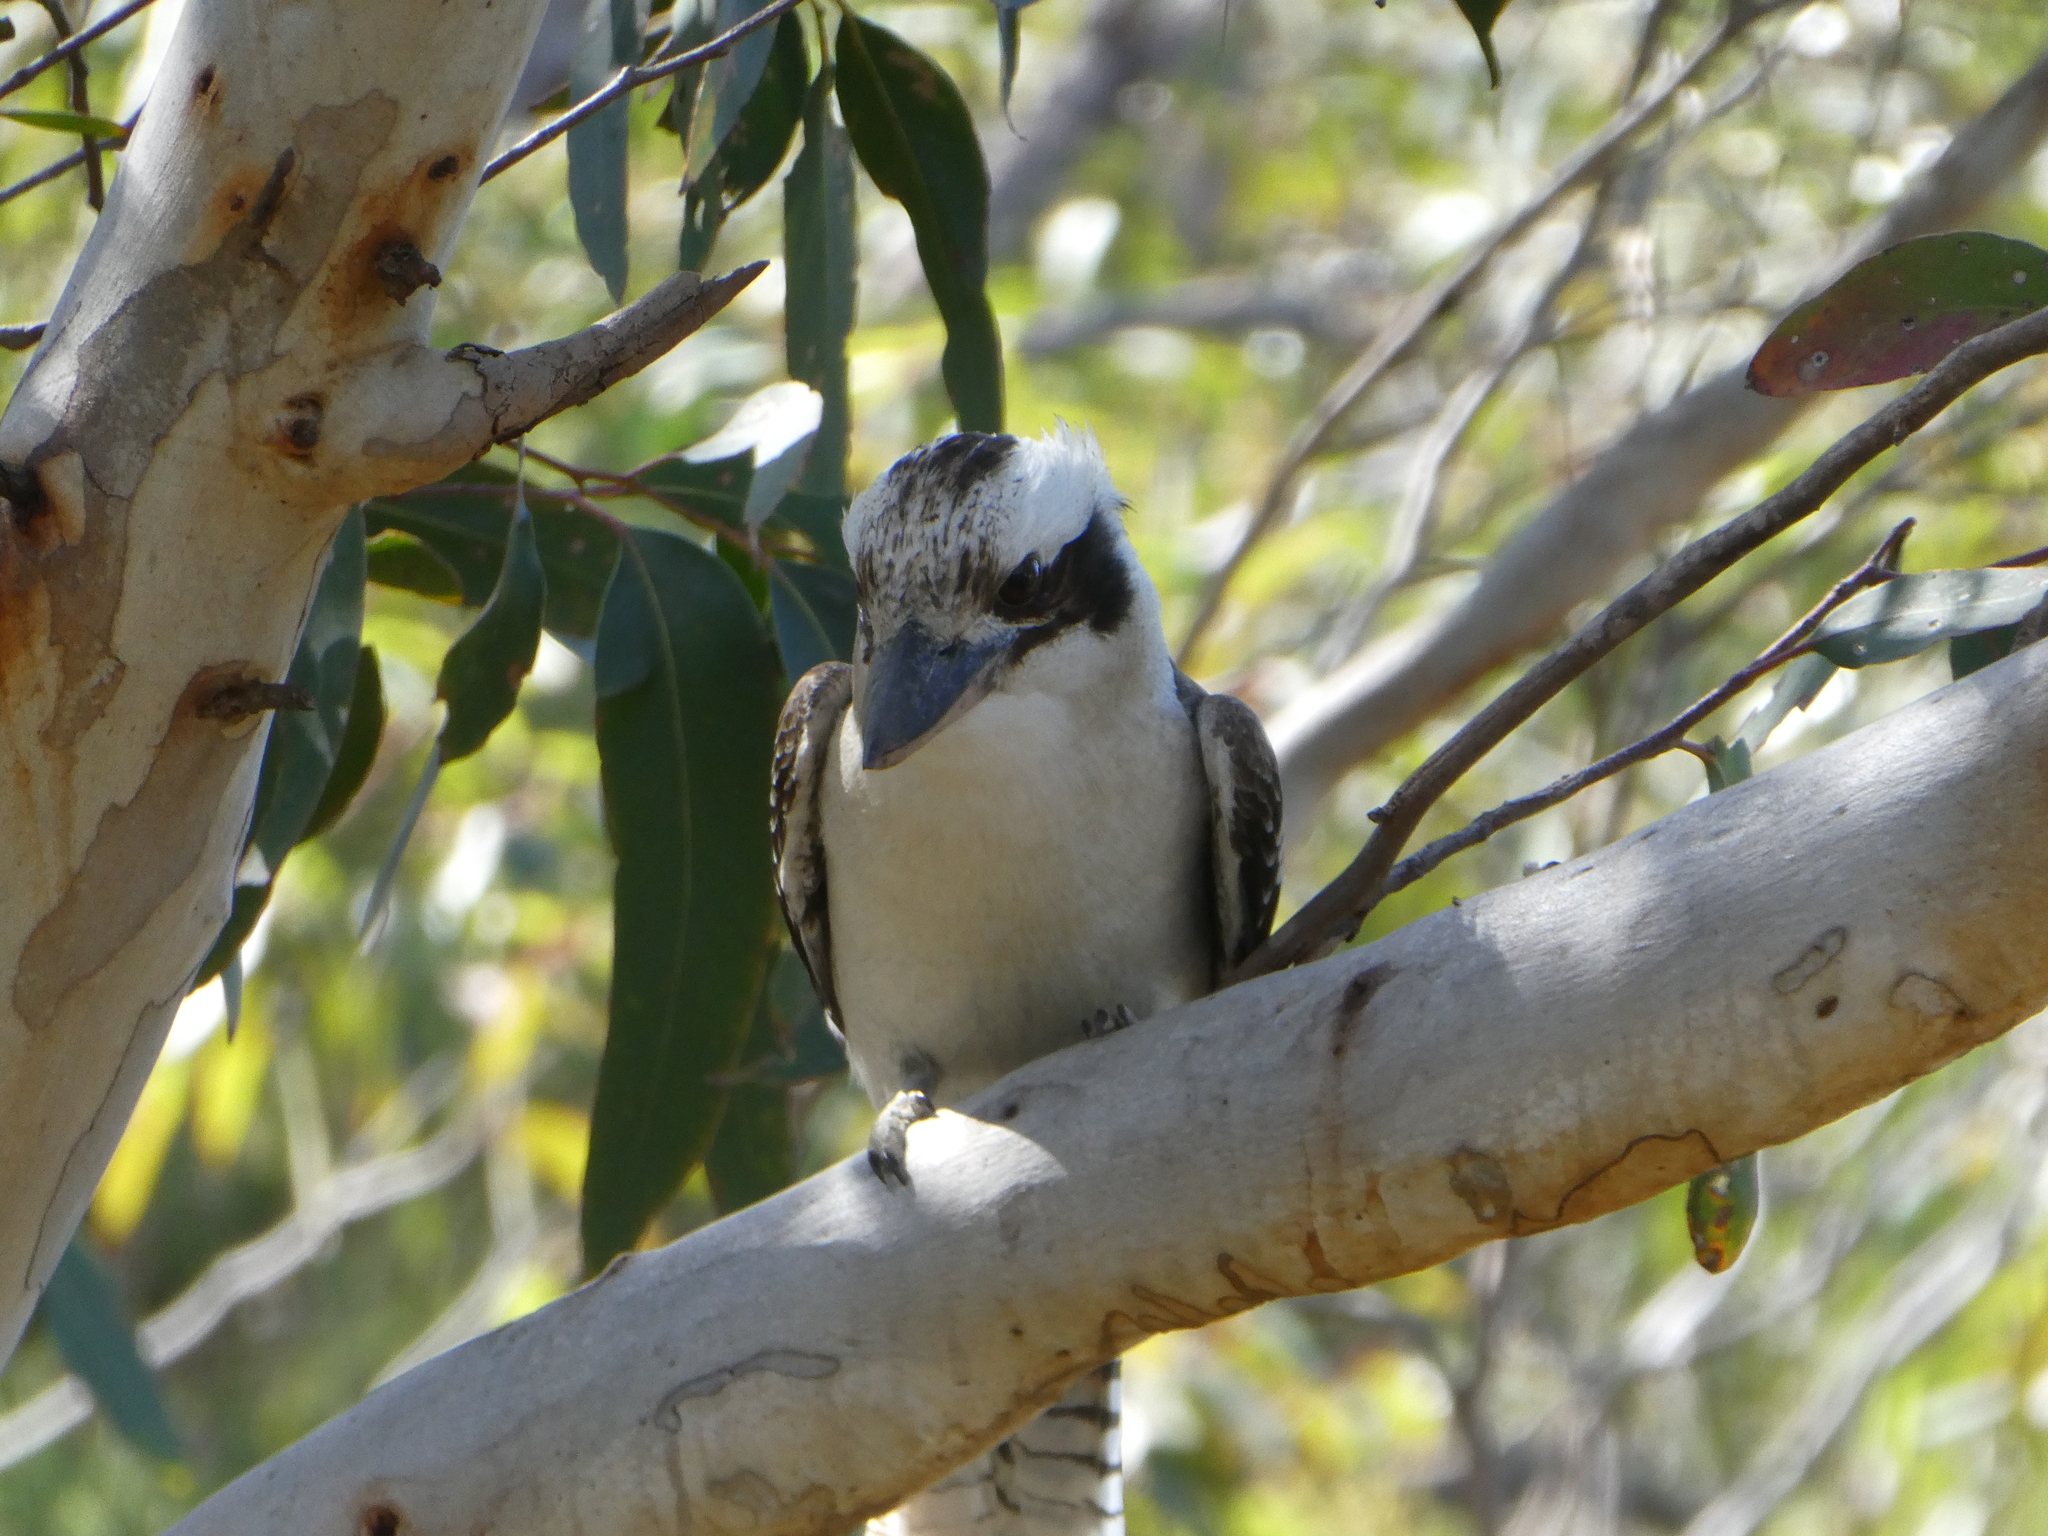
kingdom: Animalia
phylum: Chordata
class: Aves
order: Coraciiformes
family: Alcedinidae
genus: Dacelo
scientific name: Dacelo novaeguineae
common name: Laughing kookaburra
